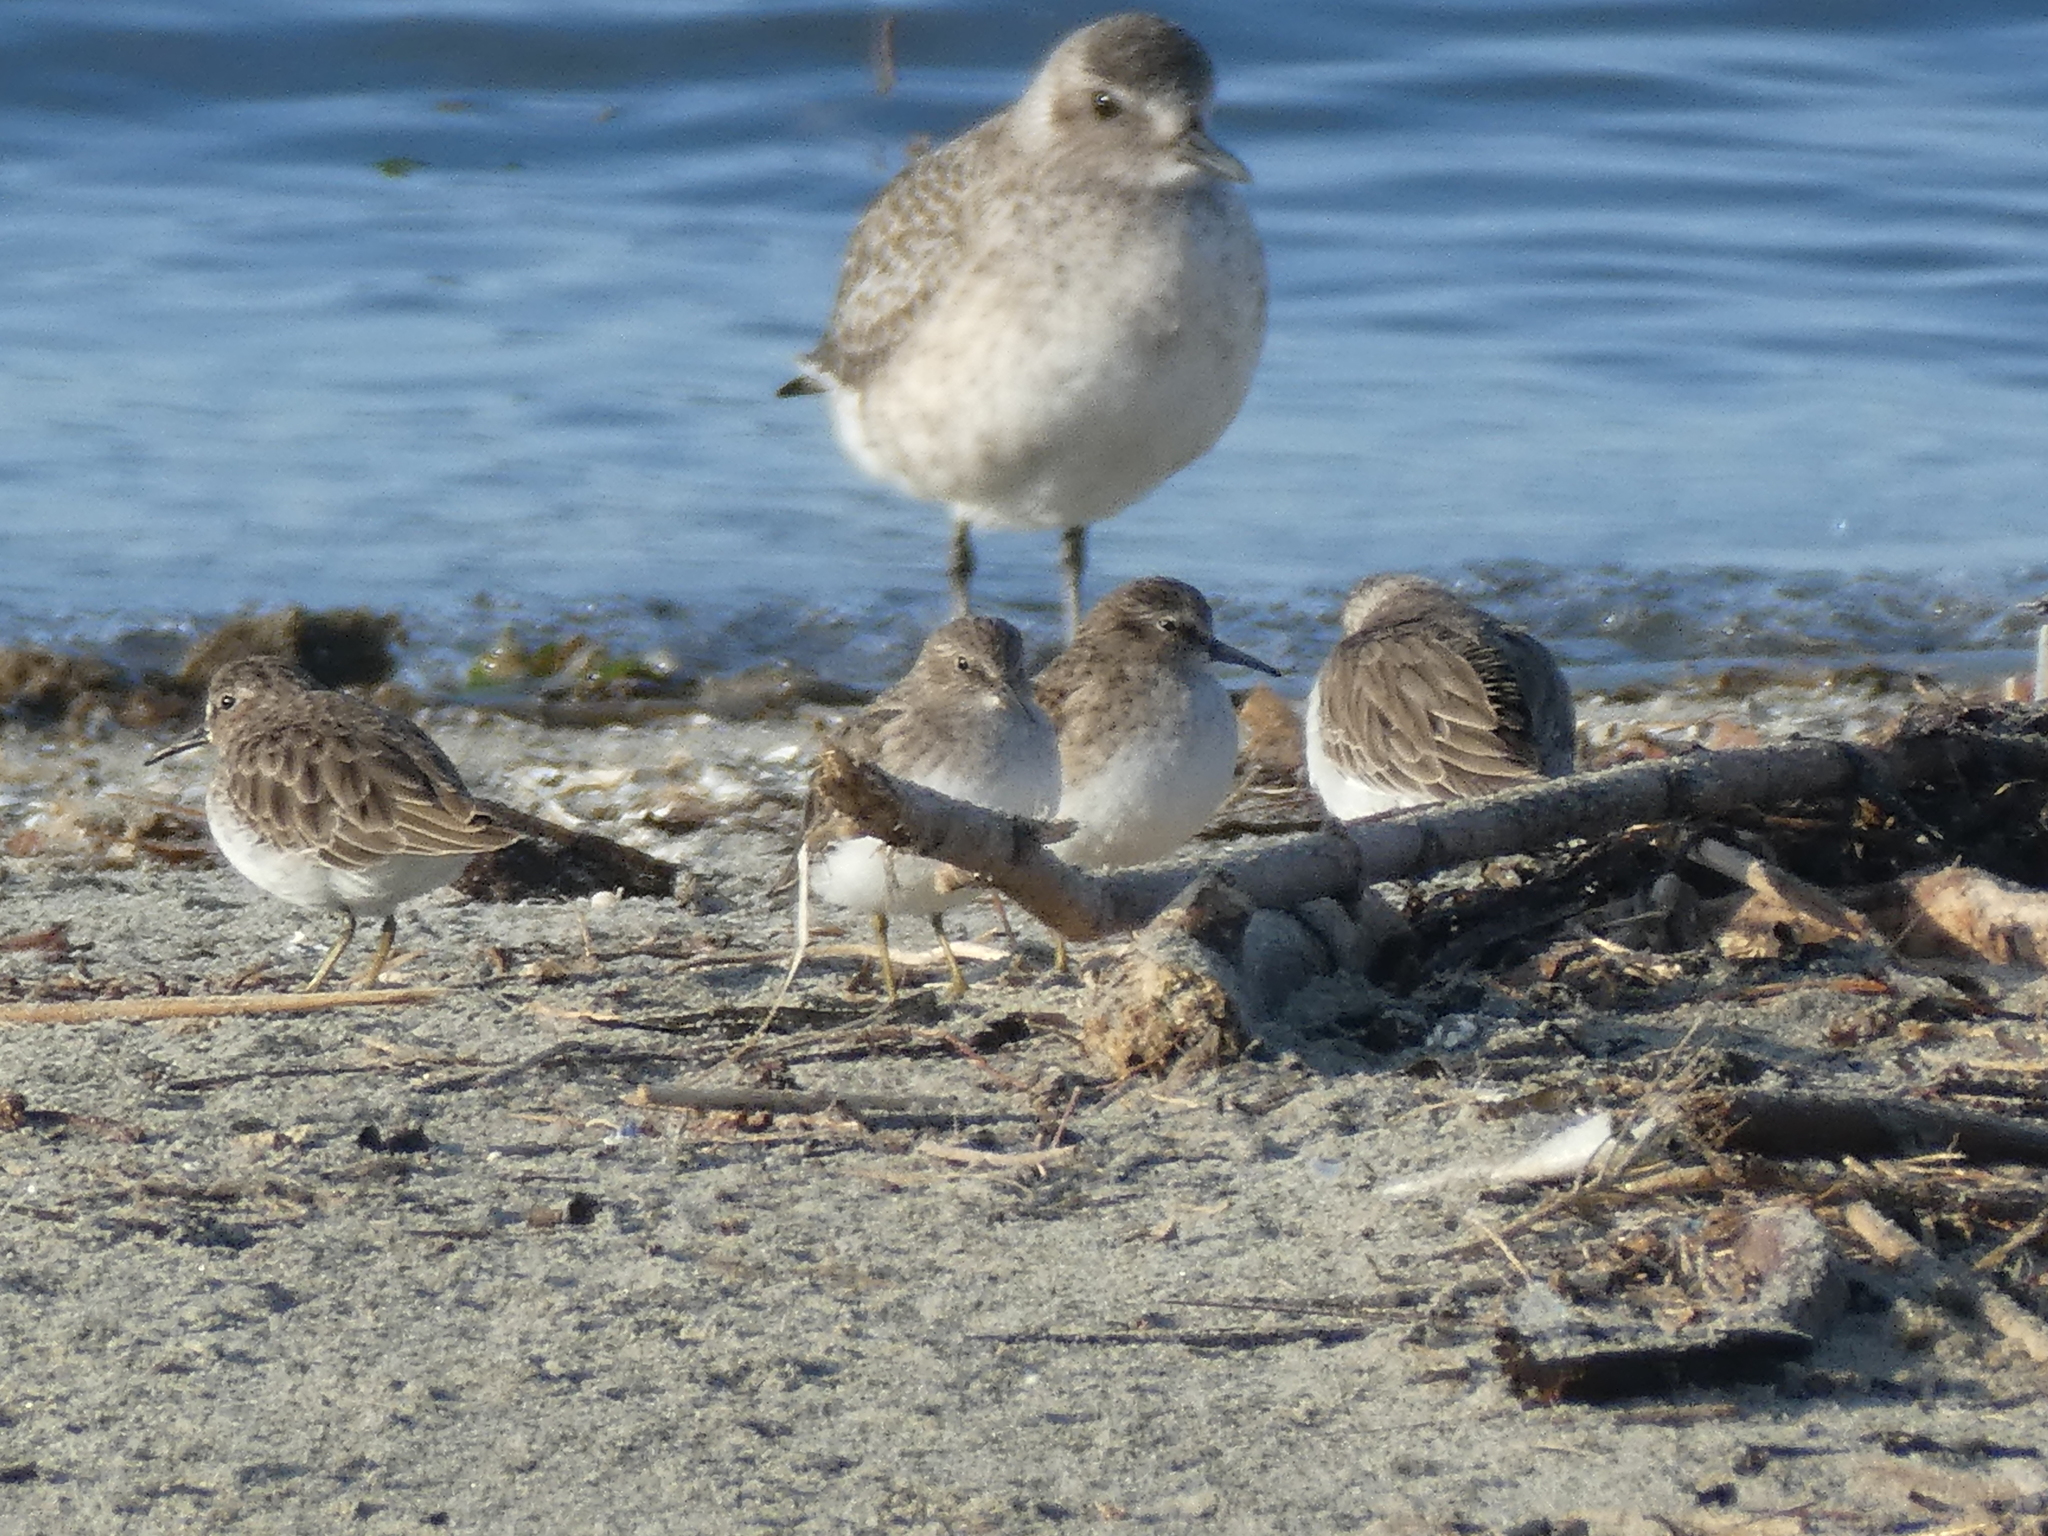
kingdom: Animalia
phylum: Chordata
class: Aves
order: Charadriiformes
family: Scolopacidae
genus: Calidris
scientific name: Calidris minutilla
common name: Least sandpiper
